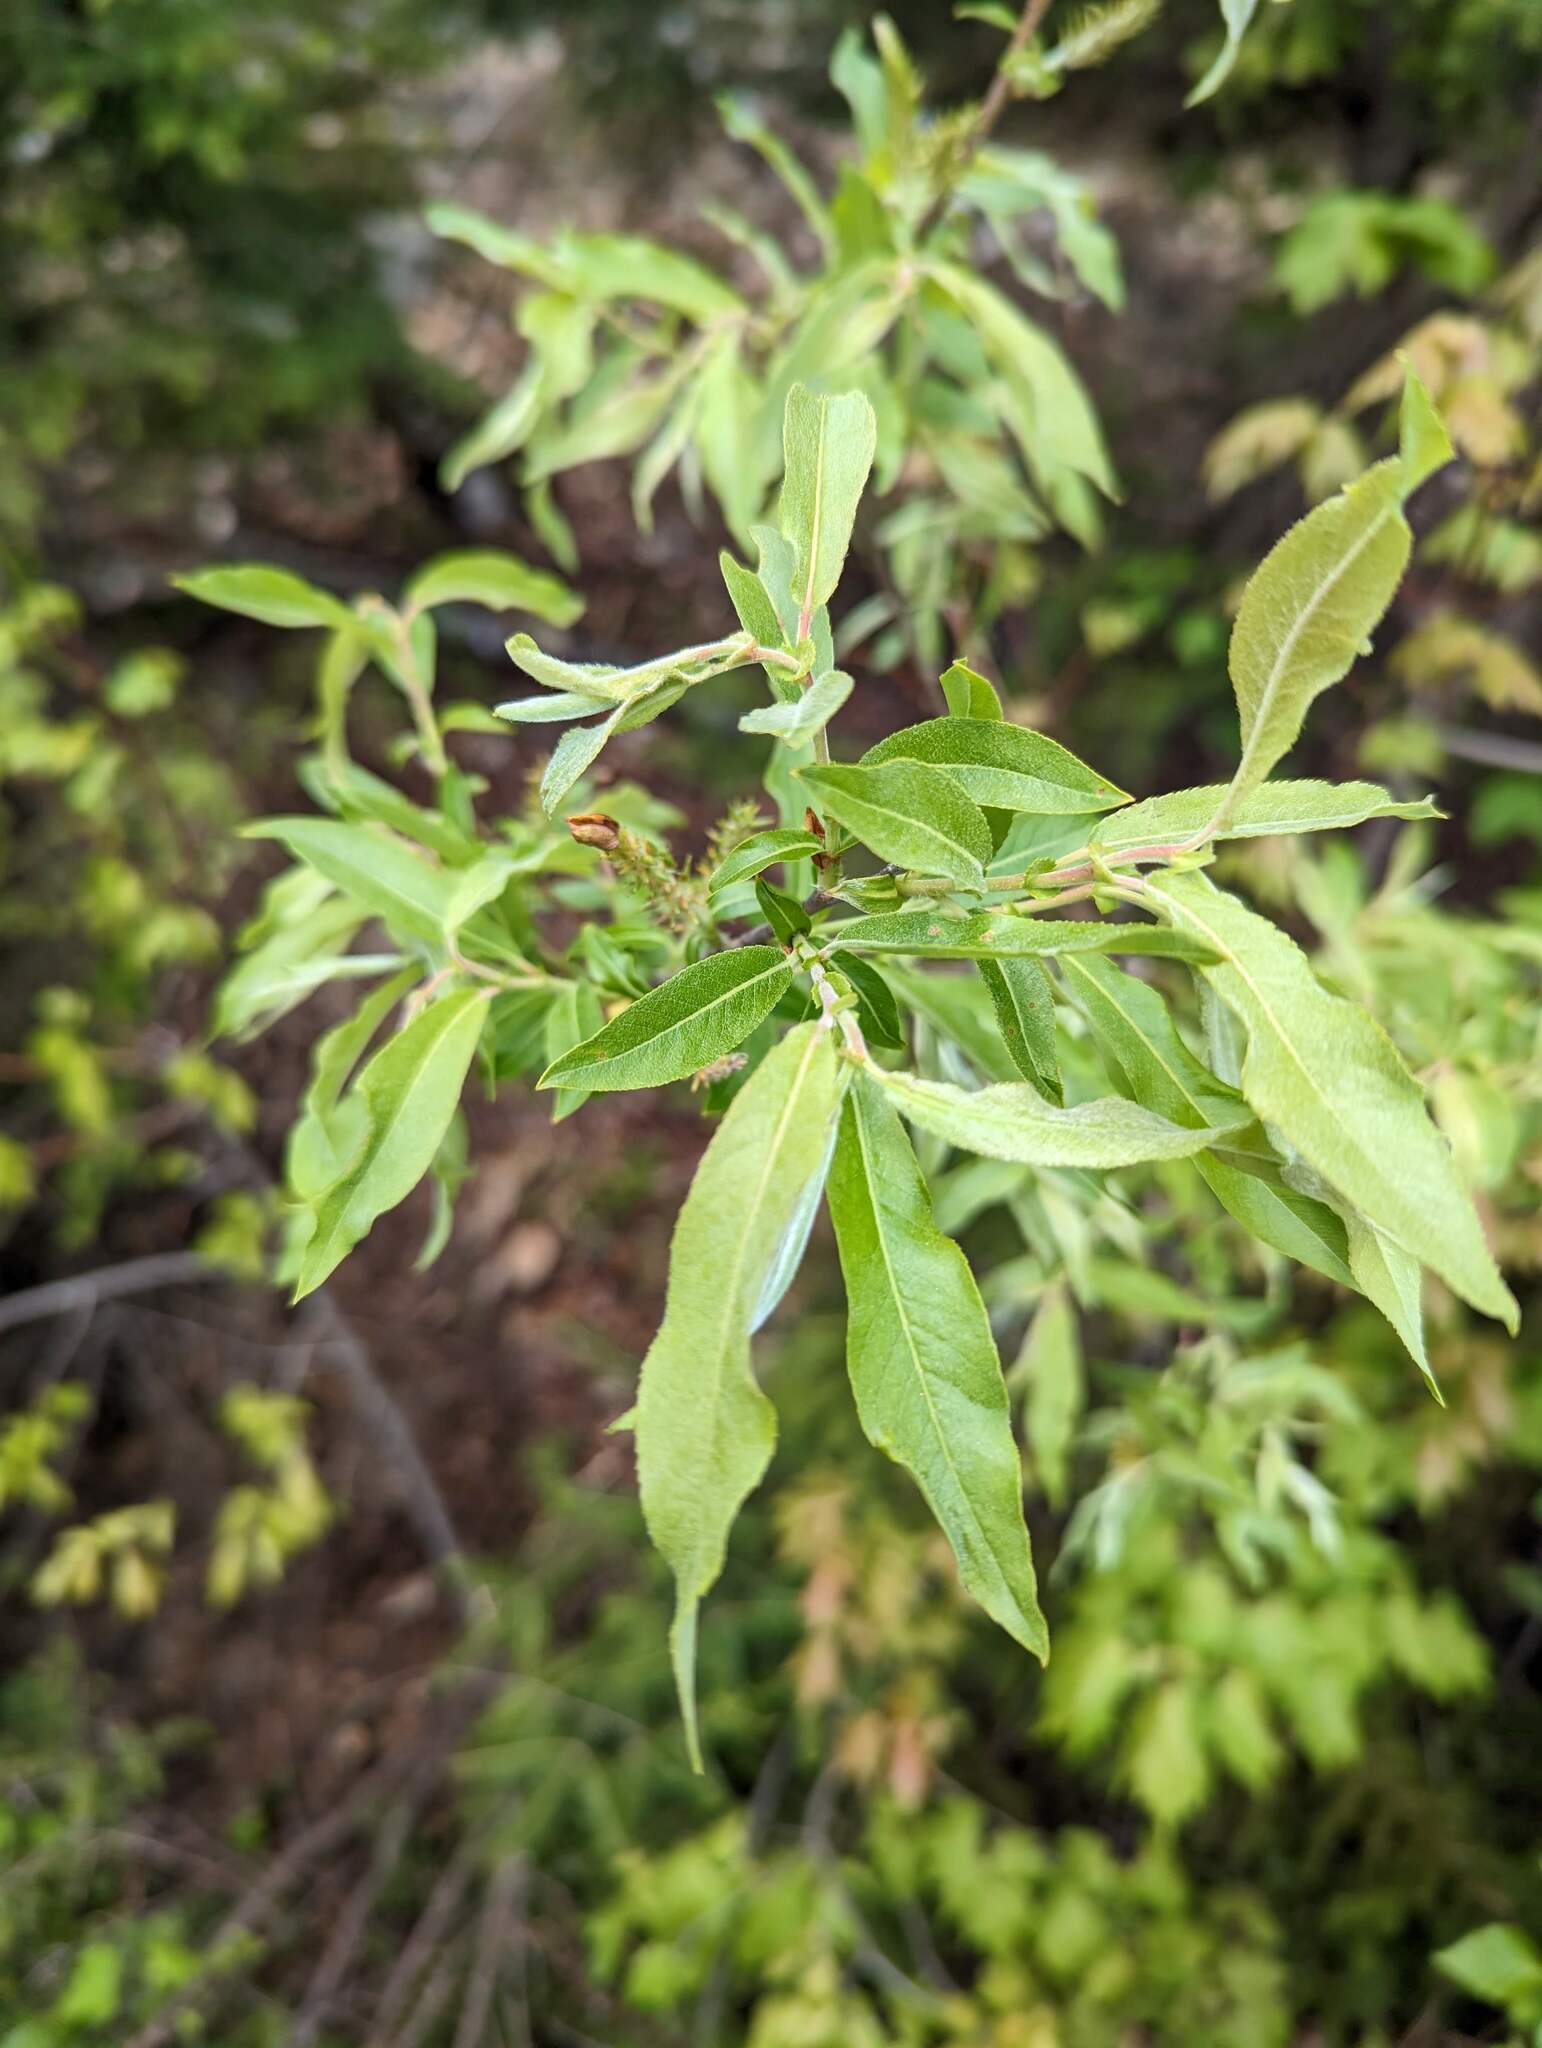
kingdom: Plantae
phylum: Tracheophyta
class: Magnoliopsida
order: Malpighiales
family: Salicaceae
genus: Salix
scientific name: Salix eriocephala
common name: Heart-leaved willow
